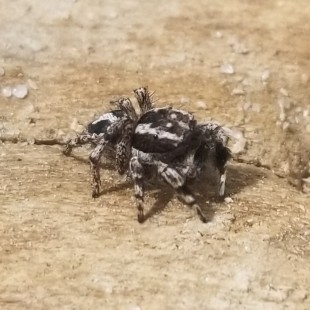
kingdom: Animalia
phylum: Arthropoda
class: Arachnida
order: Araneae
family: Salticidae
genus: Habronattus
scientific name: Habronattus agilis
